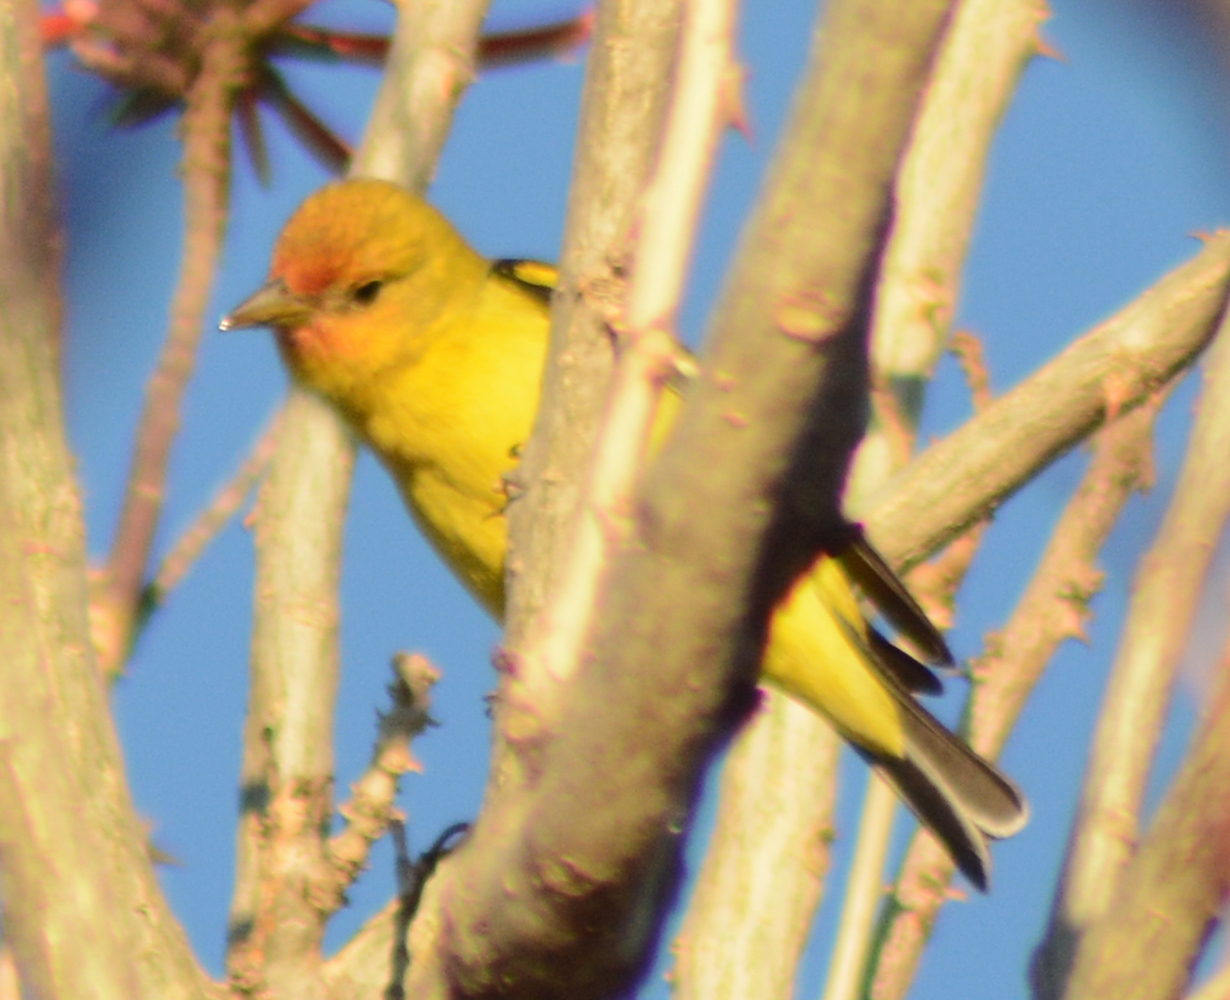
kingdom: Animalia
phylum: Chordata
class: Aves
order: Passeriformes
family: Cardinalidae
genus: Piranga
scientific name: Piranga ludoviciana
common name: Western tanager
